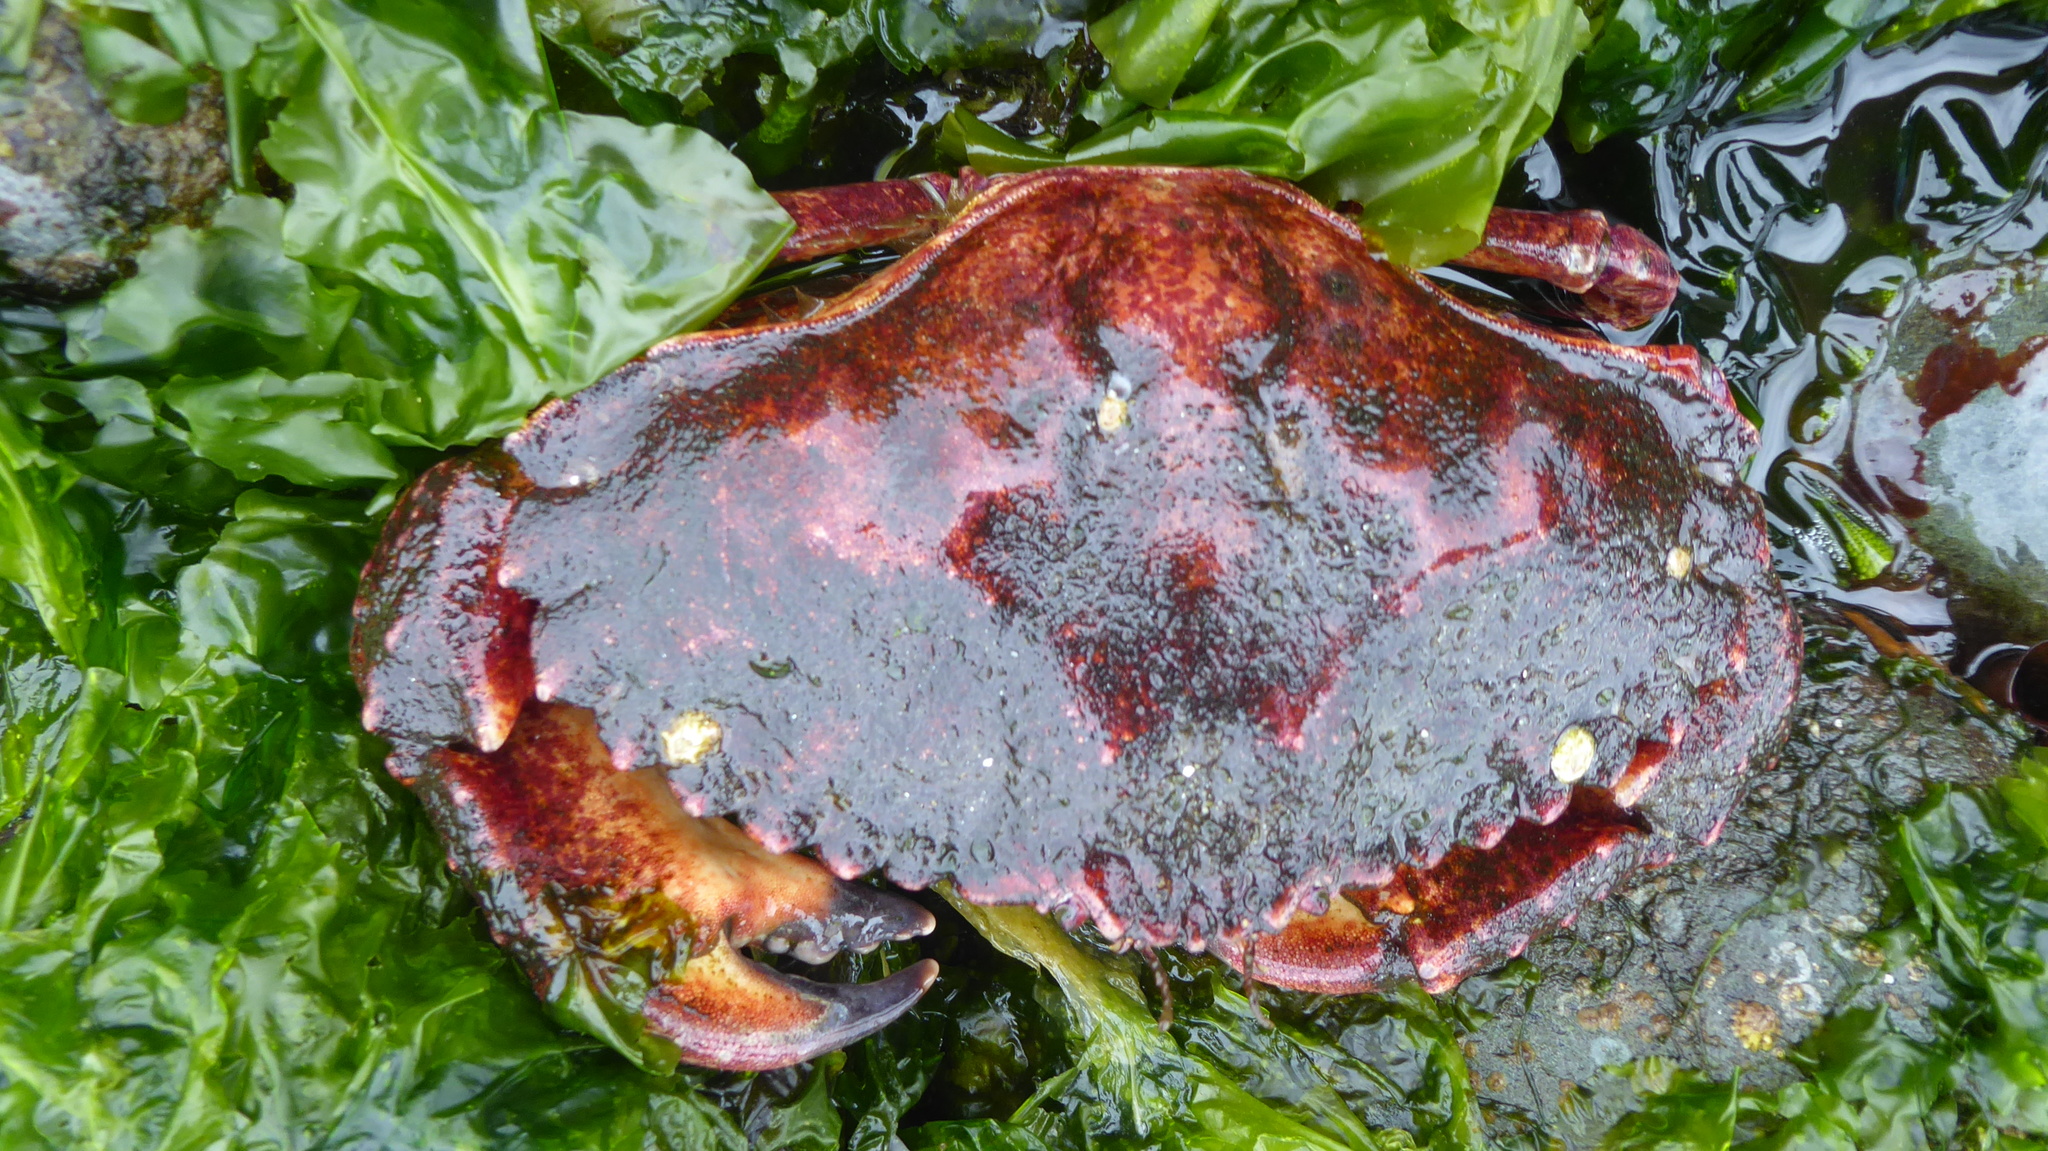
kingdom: Animalia
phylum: Arthropoda
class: Malacostraca
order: Decapoda
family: Cancridae
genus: Cancer
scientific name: Cancer productus
